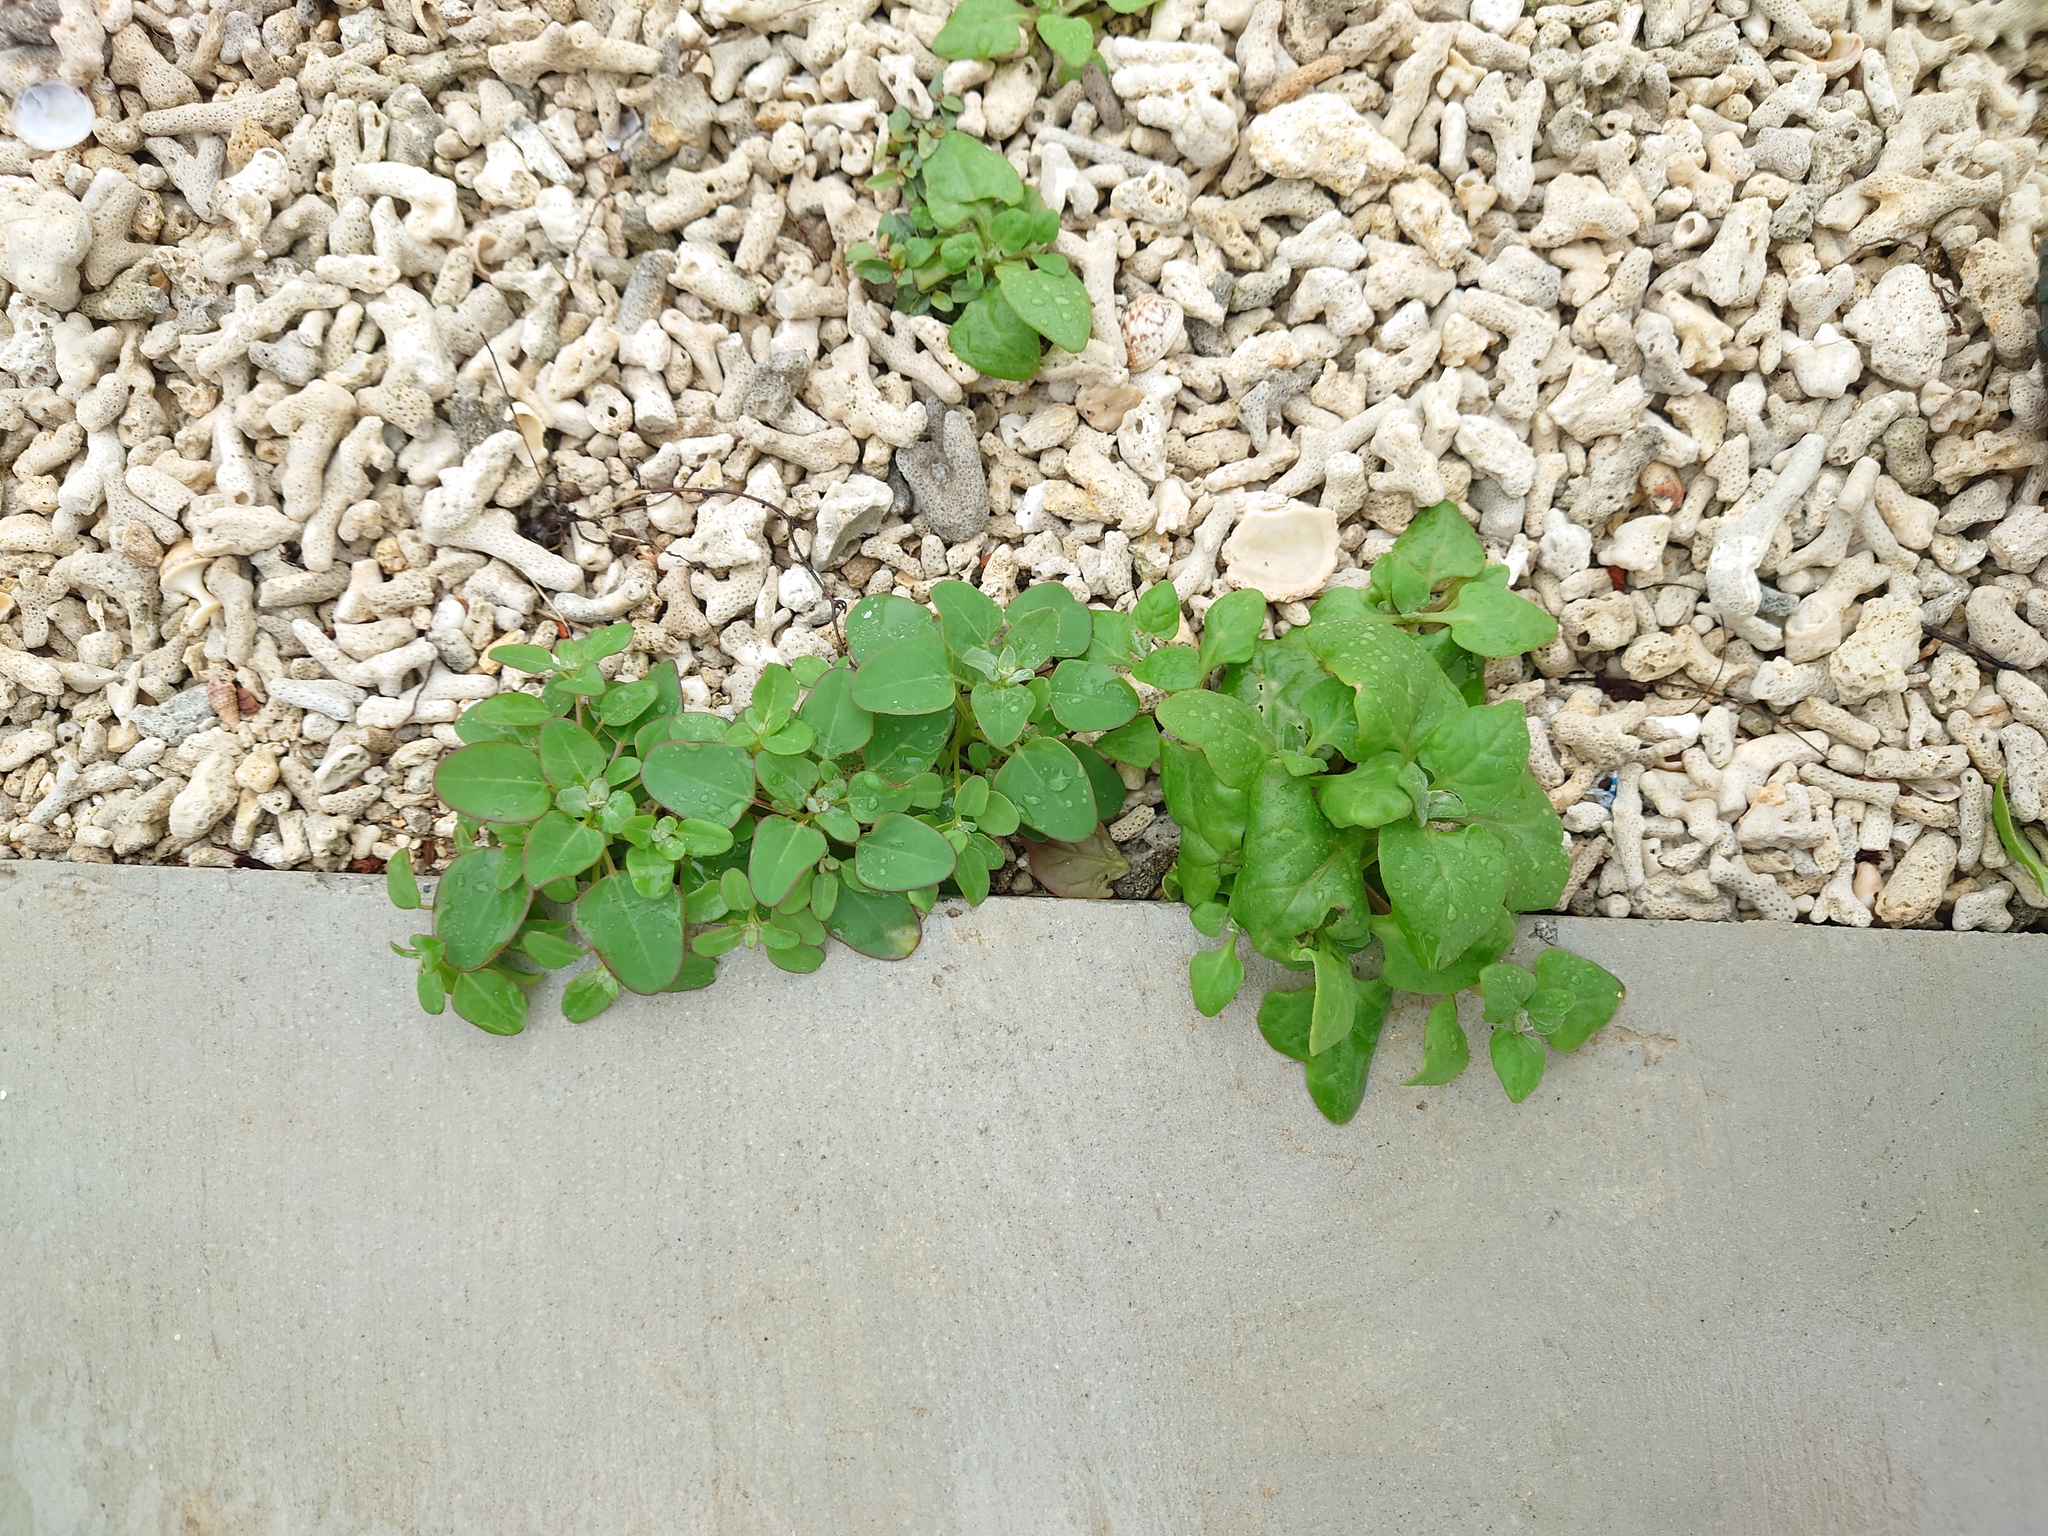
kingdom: Plantae
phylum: Tracheophyta
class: Magnoliopsida
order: Caryophyllales
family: Amaranthaceae
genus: Chenopodium
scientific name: Chenopodium acuminatum
